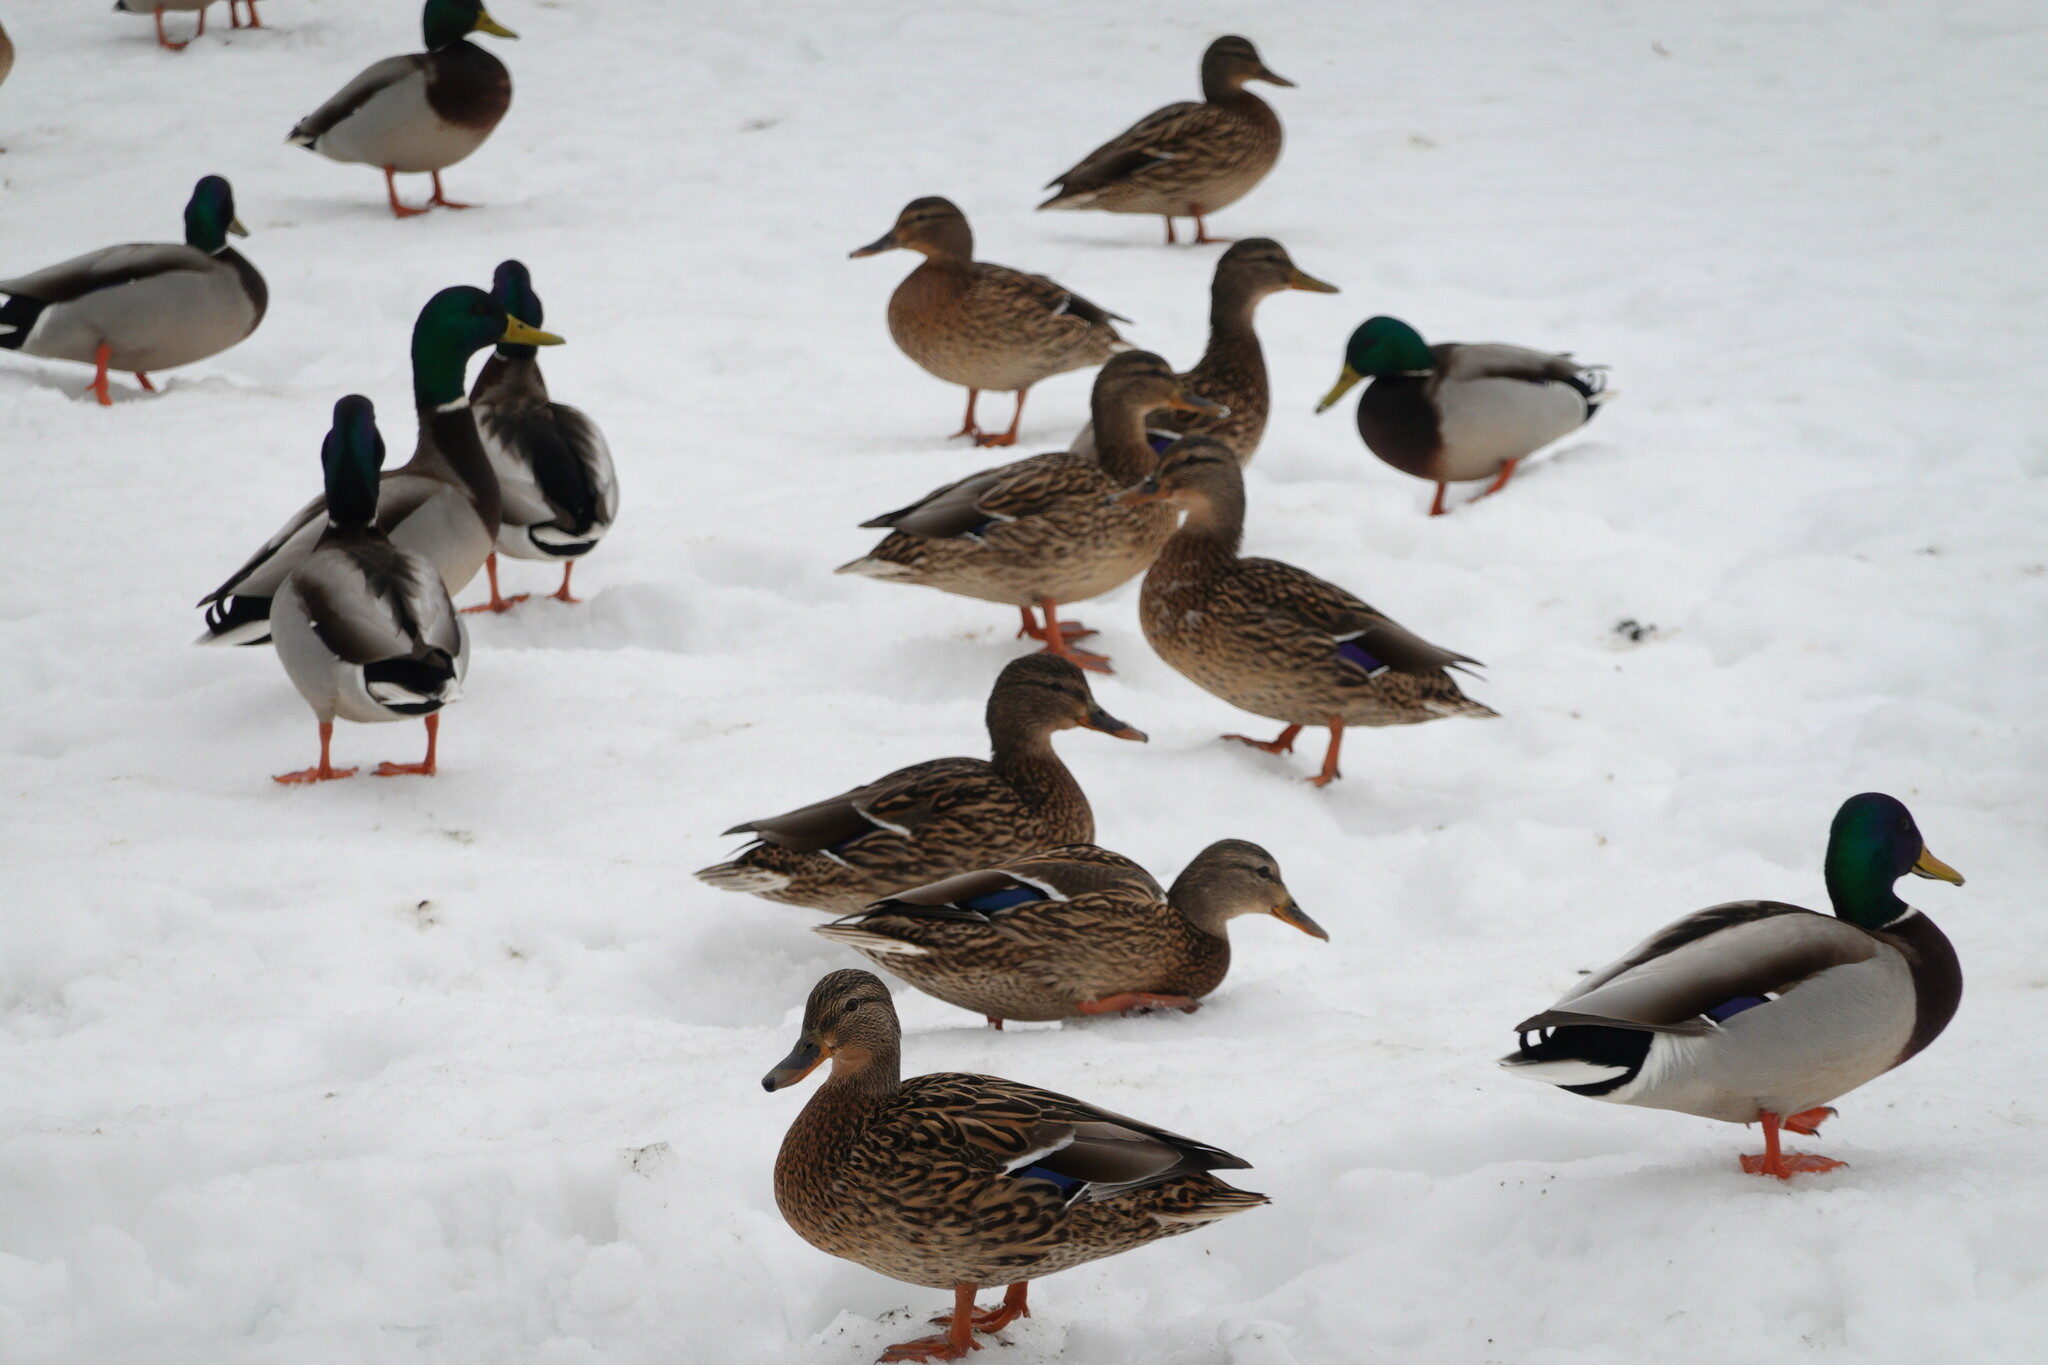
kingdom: Animalia
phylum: Chordata
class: Aves
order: Anseriformes
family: Anatidae
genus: Anas
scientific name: Anas platyrhynchos
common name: Mallard
